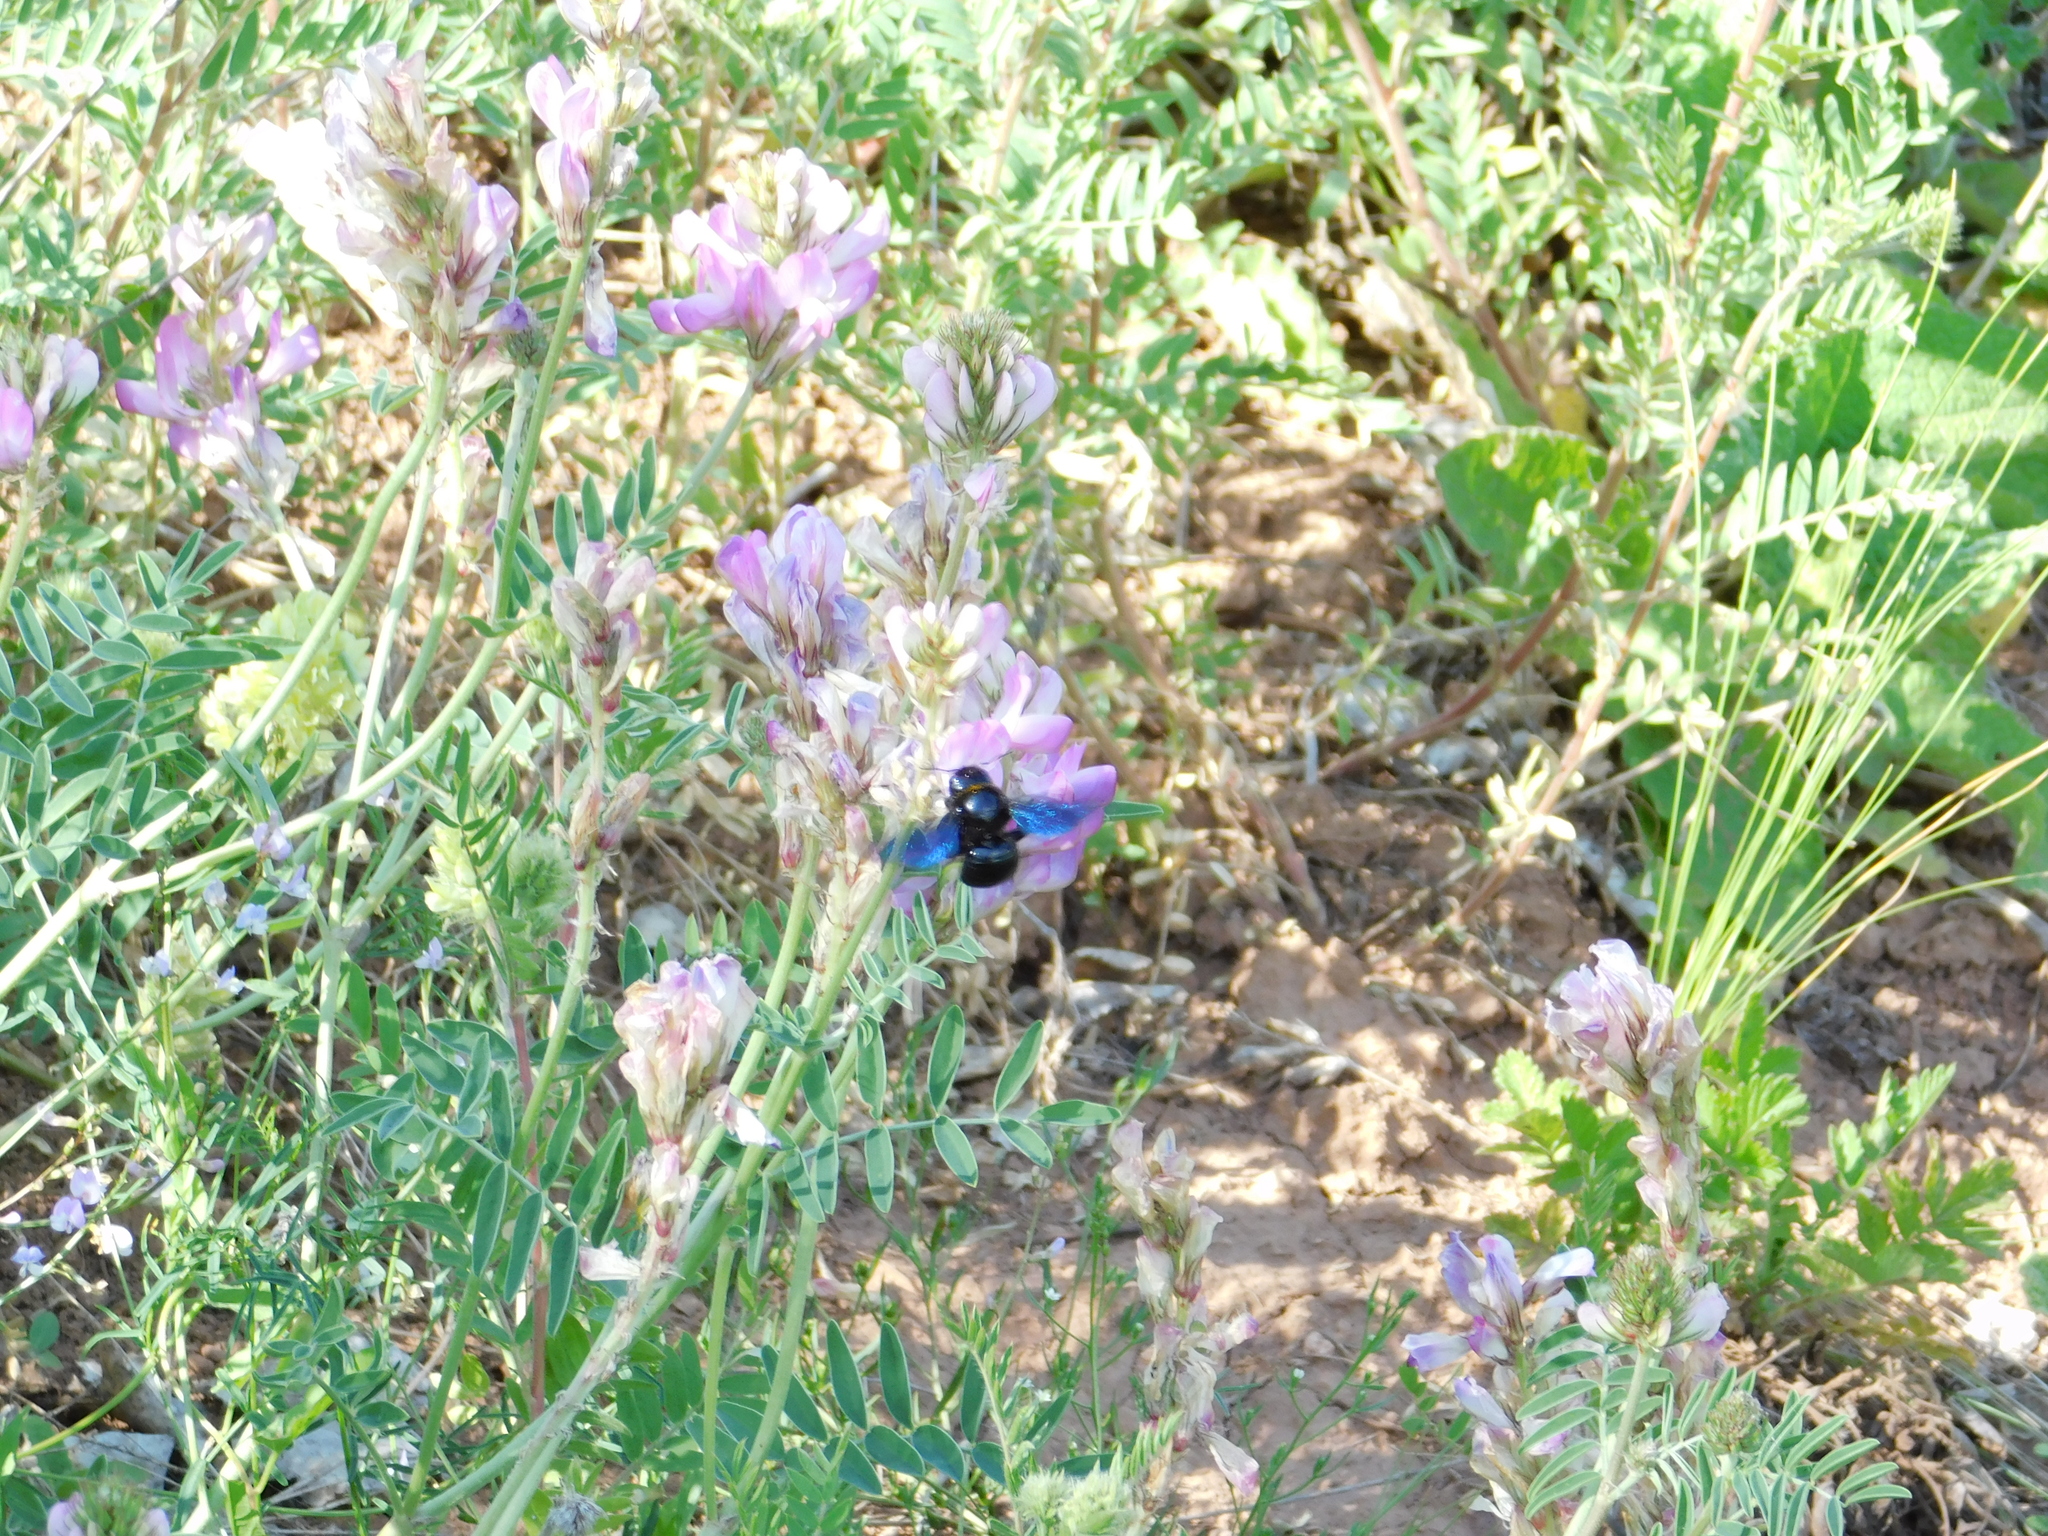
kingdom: Animalia
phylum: Arthropoda
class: Insecta
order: Hymenoptera
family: Apidae
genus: Xylocopa
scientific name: Xylocopa valga
